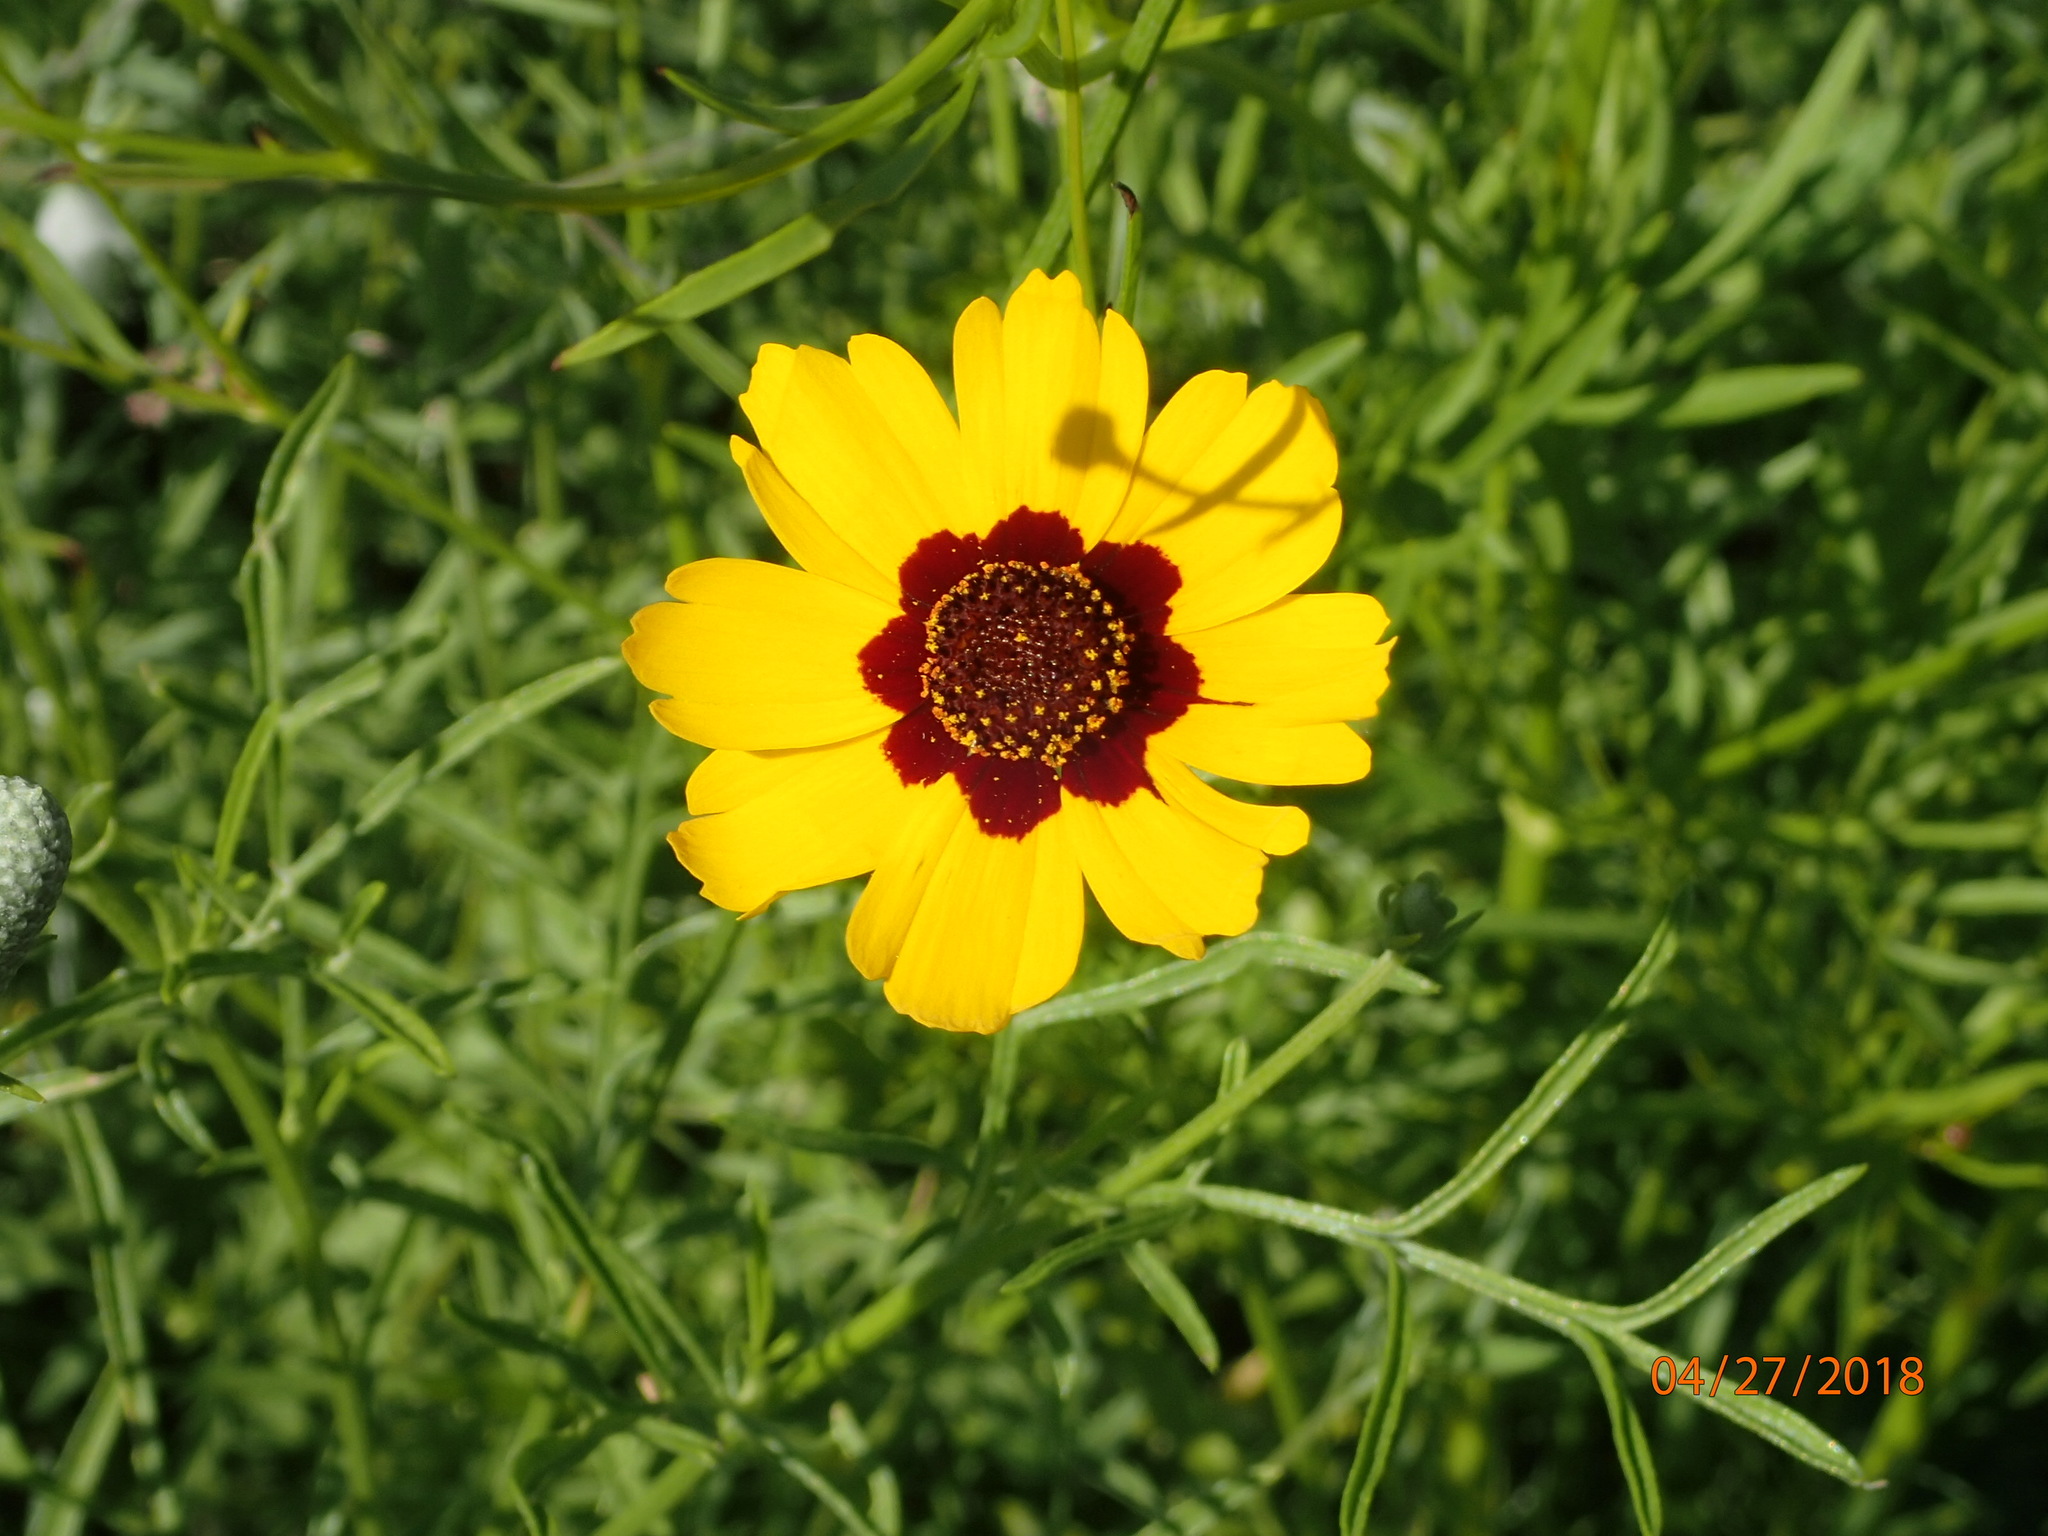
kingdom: Plantae
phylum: Tracheophyta
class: Magnoliopsida
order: Asterales
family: Asteraceae
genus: Coreopsis
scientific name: Coreopsis tinctoria
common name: Garden tickseed
